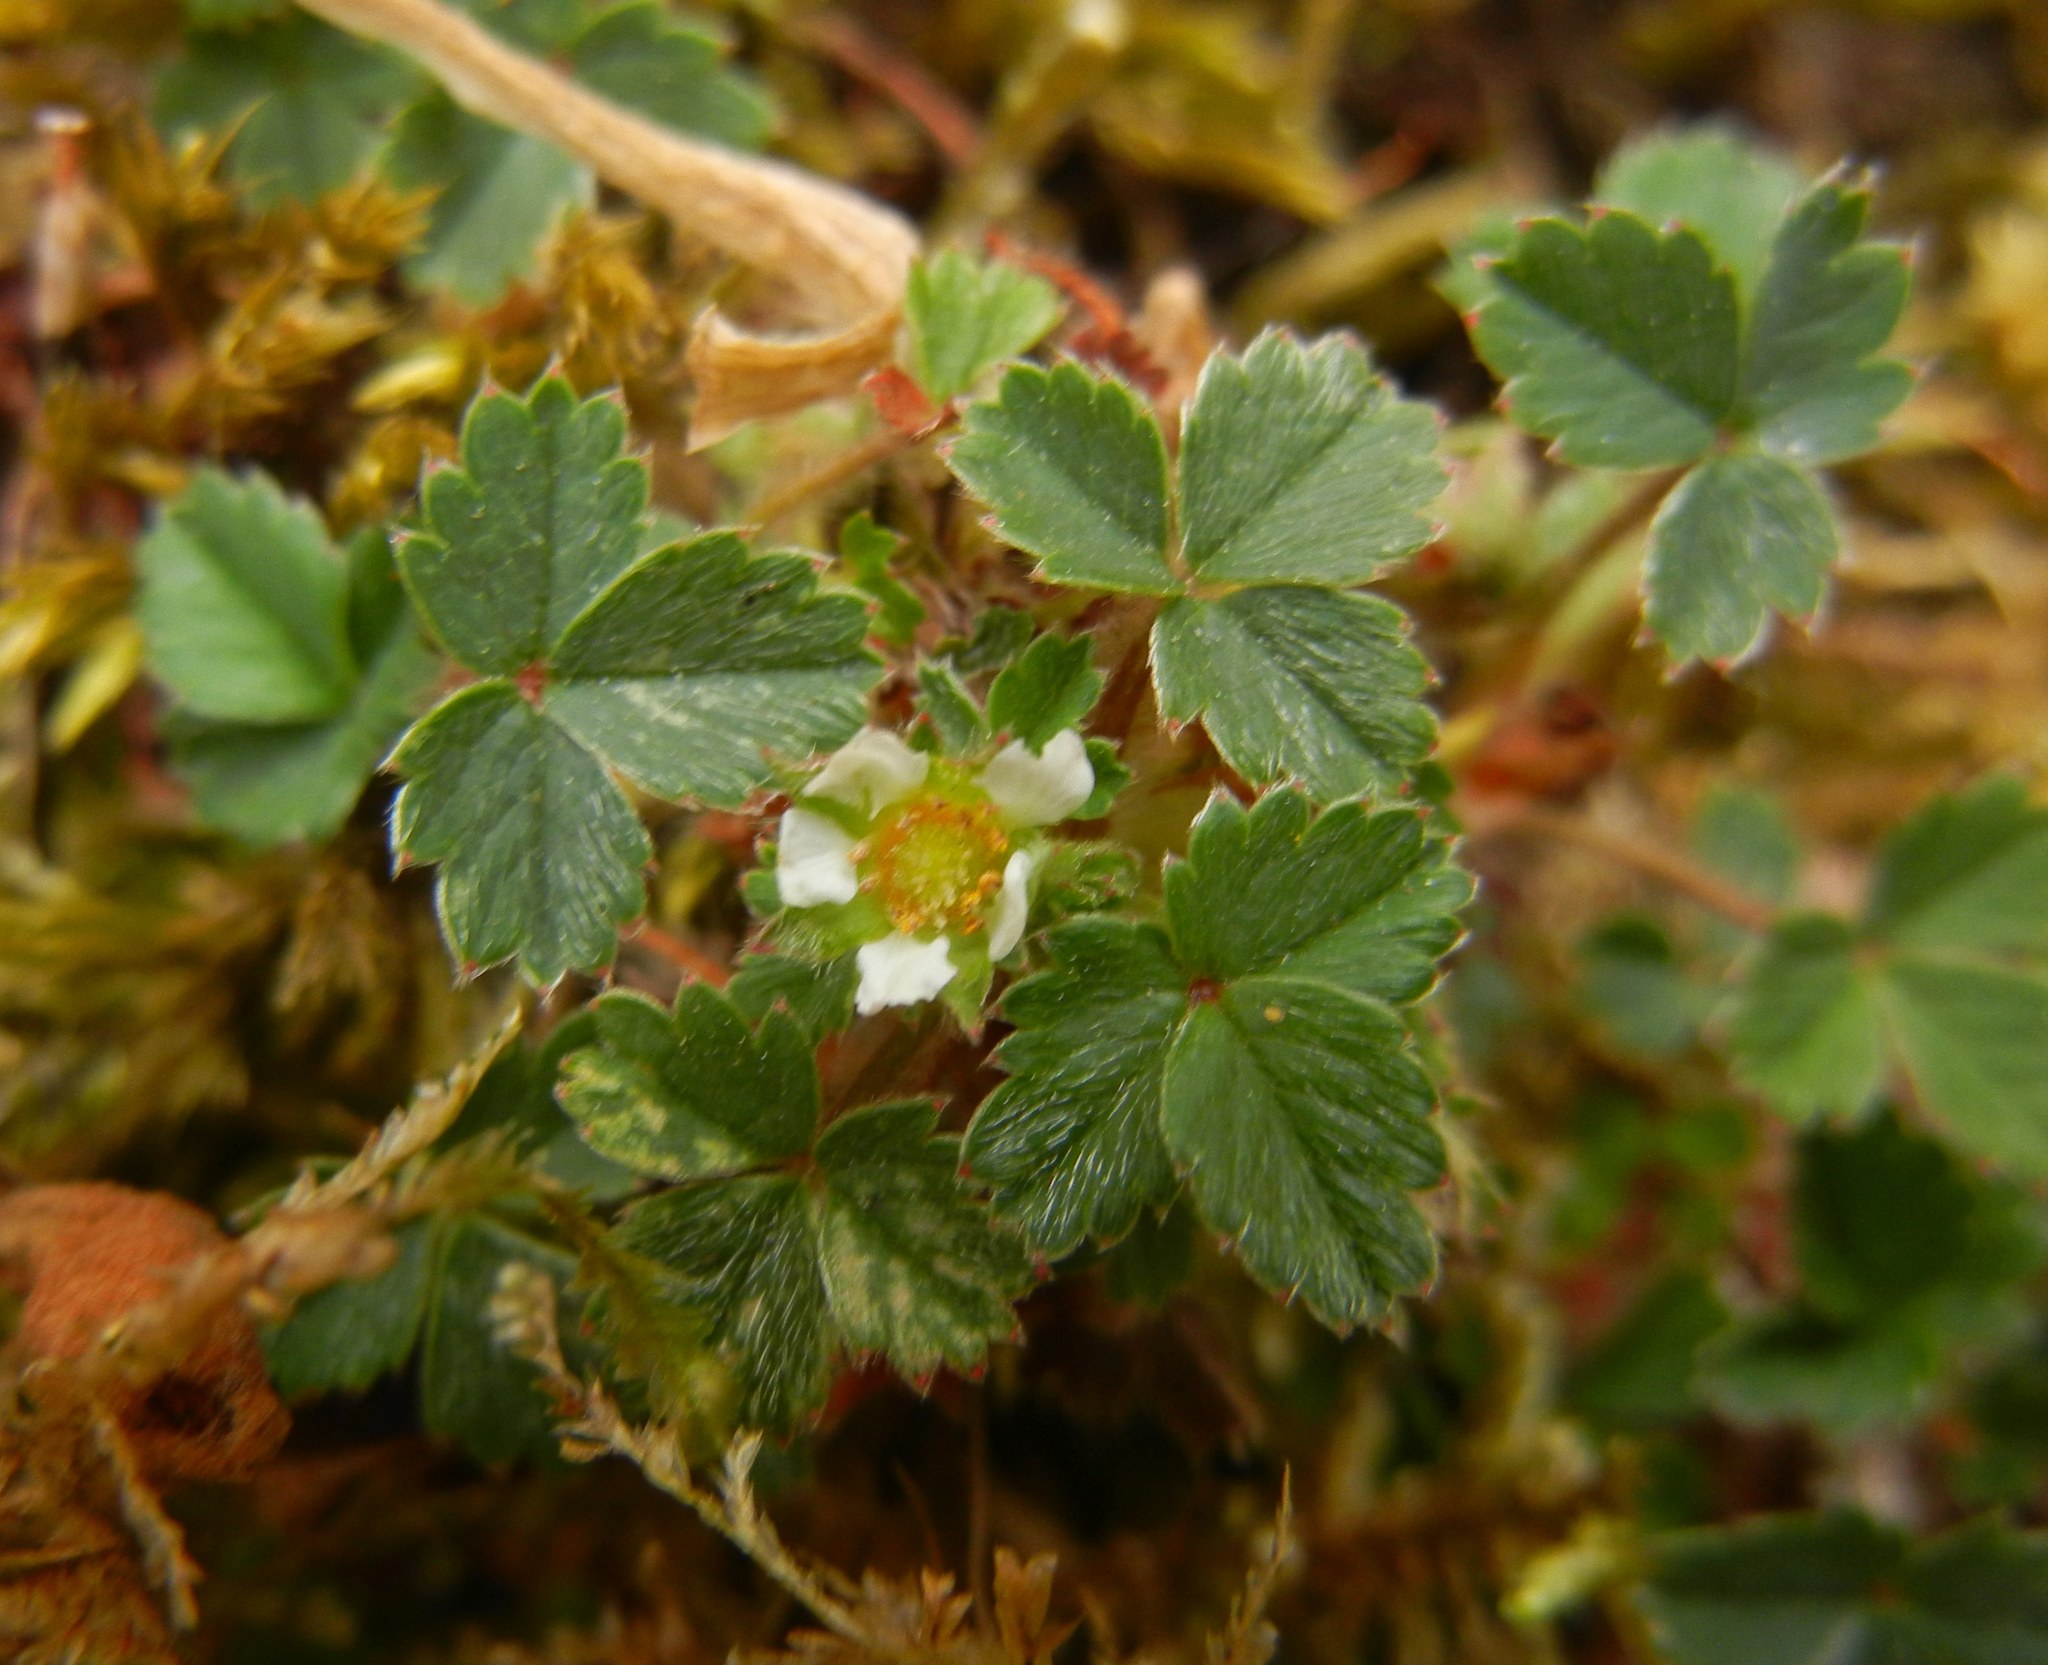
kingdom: Plantae
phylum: Tracheophyta
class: Magnoliopsida
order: Rosales
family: Rosaceae
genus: Potentilla
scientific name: Potentilla sterilis
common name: Barren strawberry
